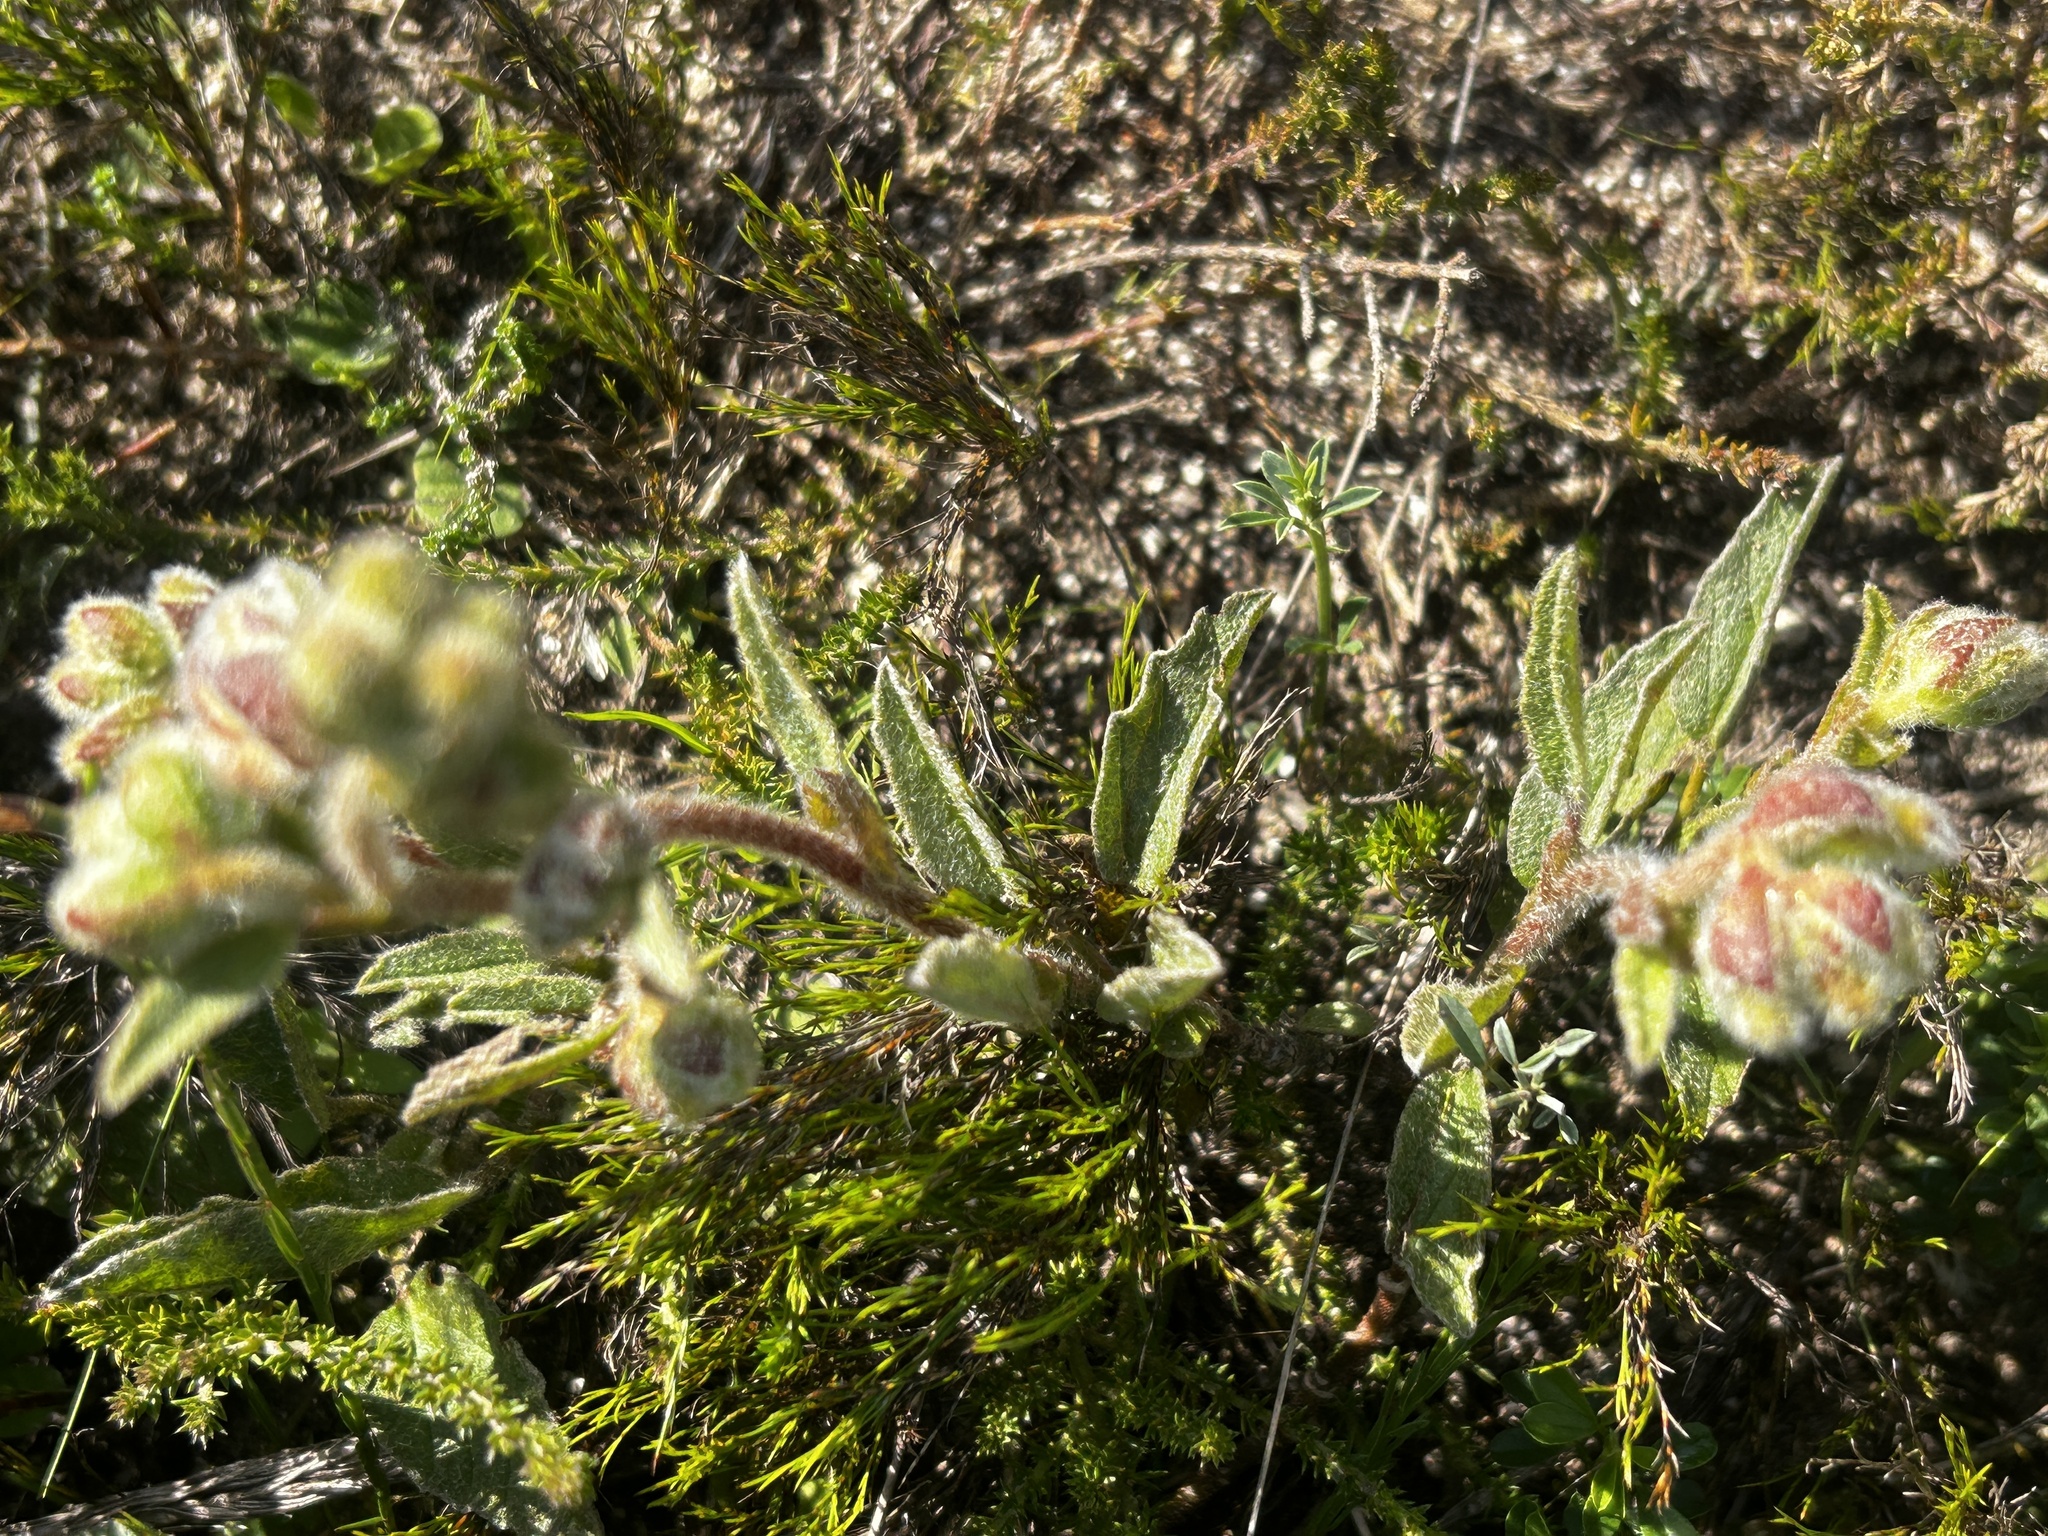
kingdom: Plantae
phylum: Tracheophyta
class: Magnoliopsida
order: Malvales
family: Malvaceae
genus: Hermannia
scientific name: Hermannia salviifolia
